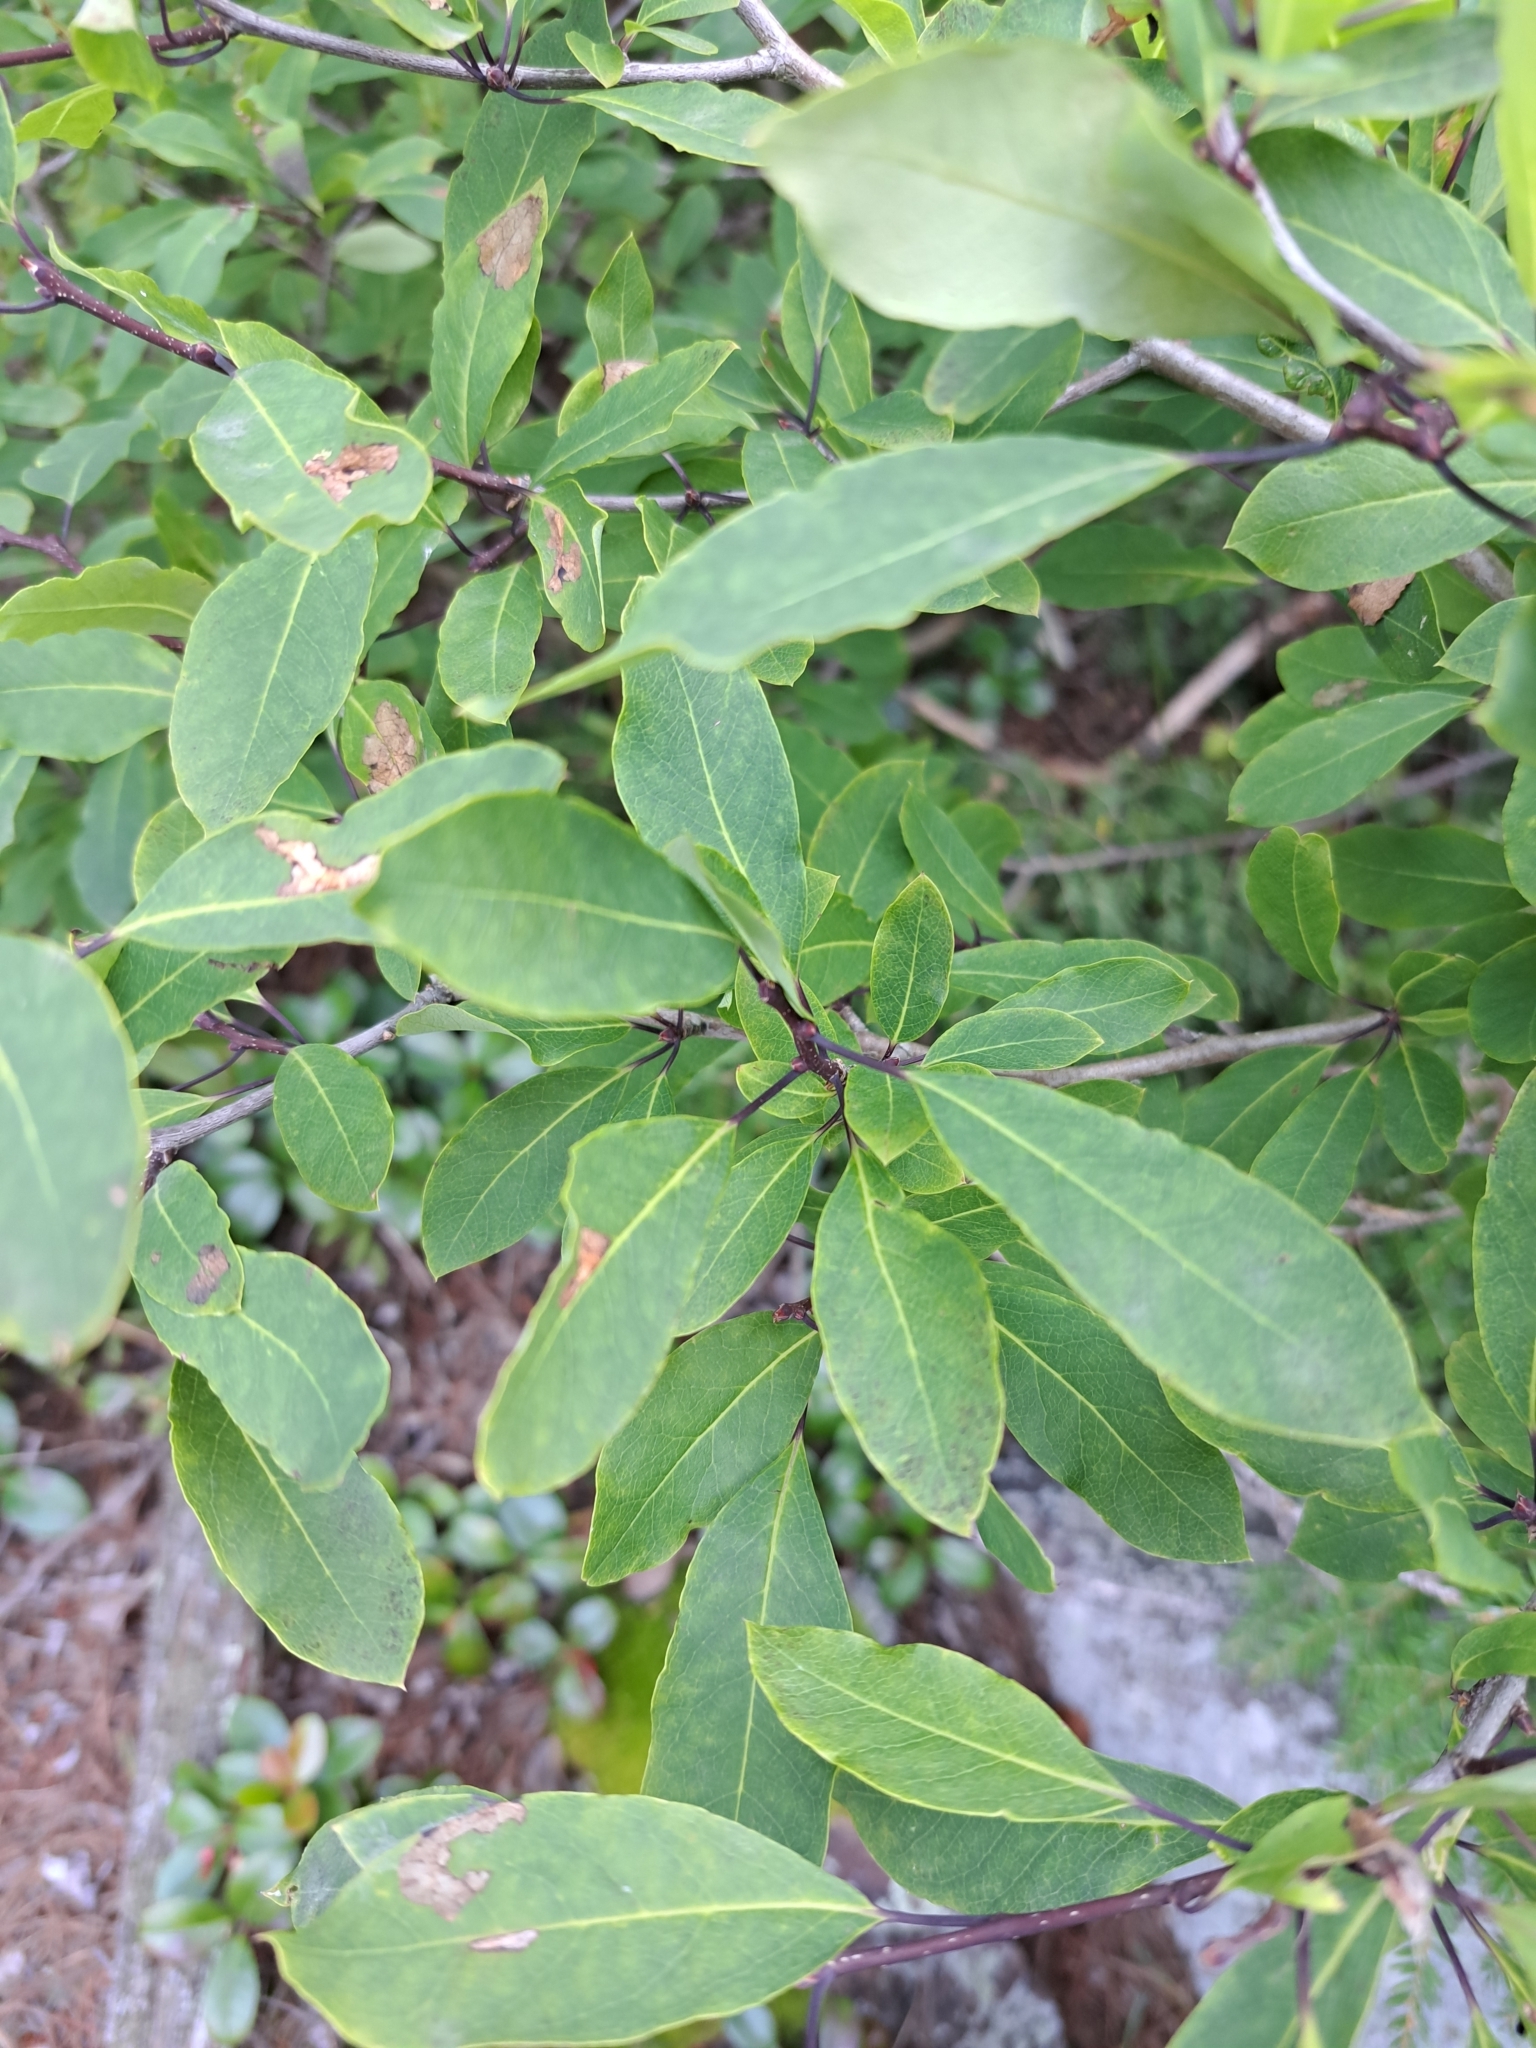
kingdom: Plantae
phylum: Tracheophyta
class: Magnoliopsida
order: Aquifoliales
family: Aquifoliaceae
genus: Ilex
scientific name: Ilex mucronata
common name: Catberry
